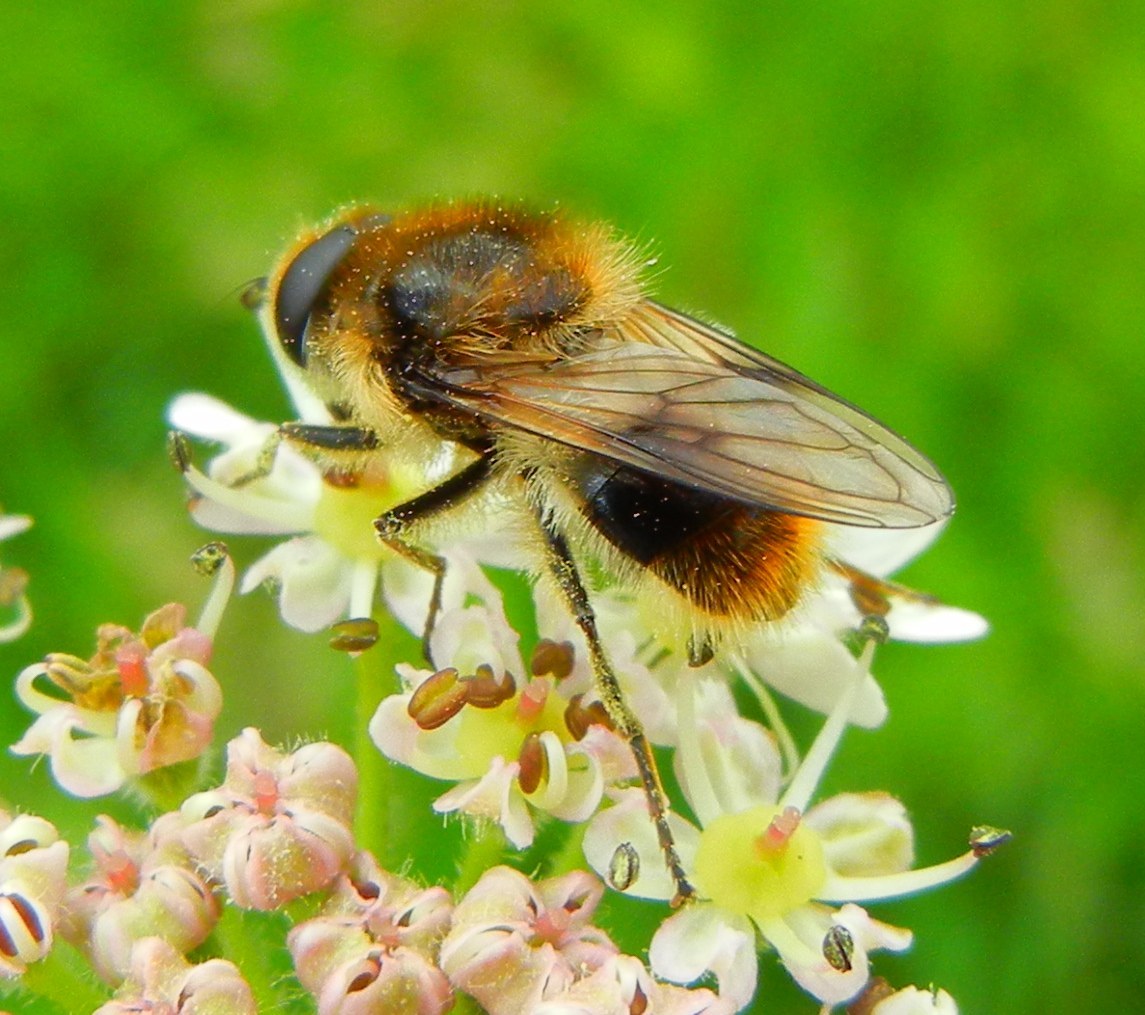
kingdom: Animalia
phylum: Arthropoda
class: Insecta
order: Diptera
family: Syrphidae
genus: Cheilosia
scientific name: Cheilosia illustrata
